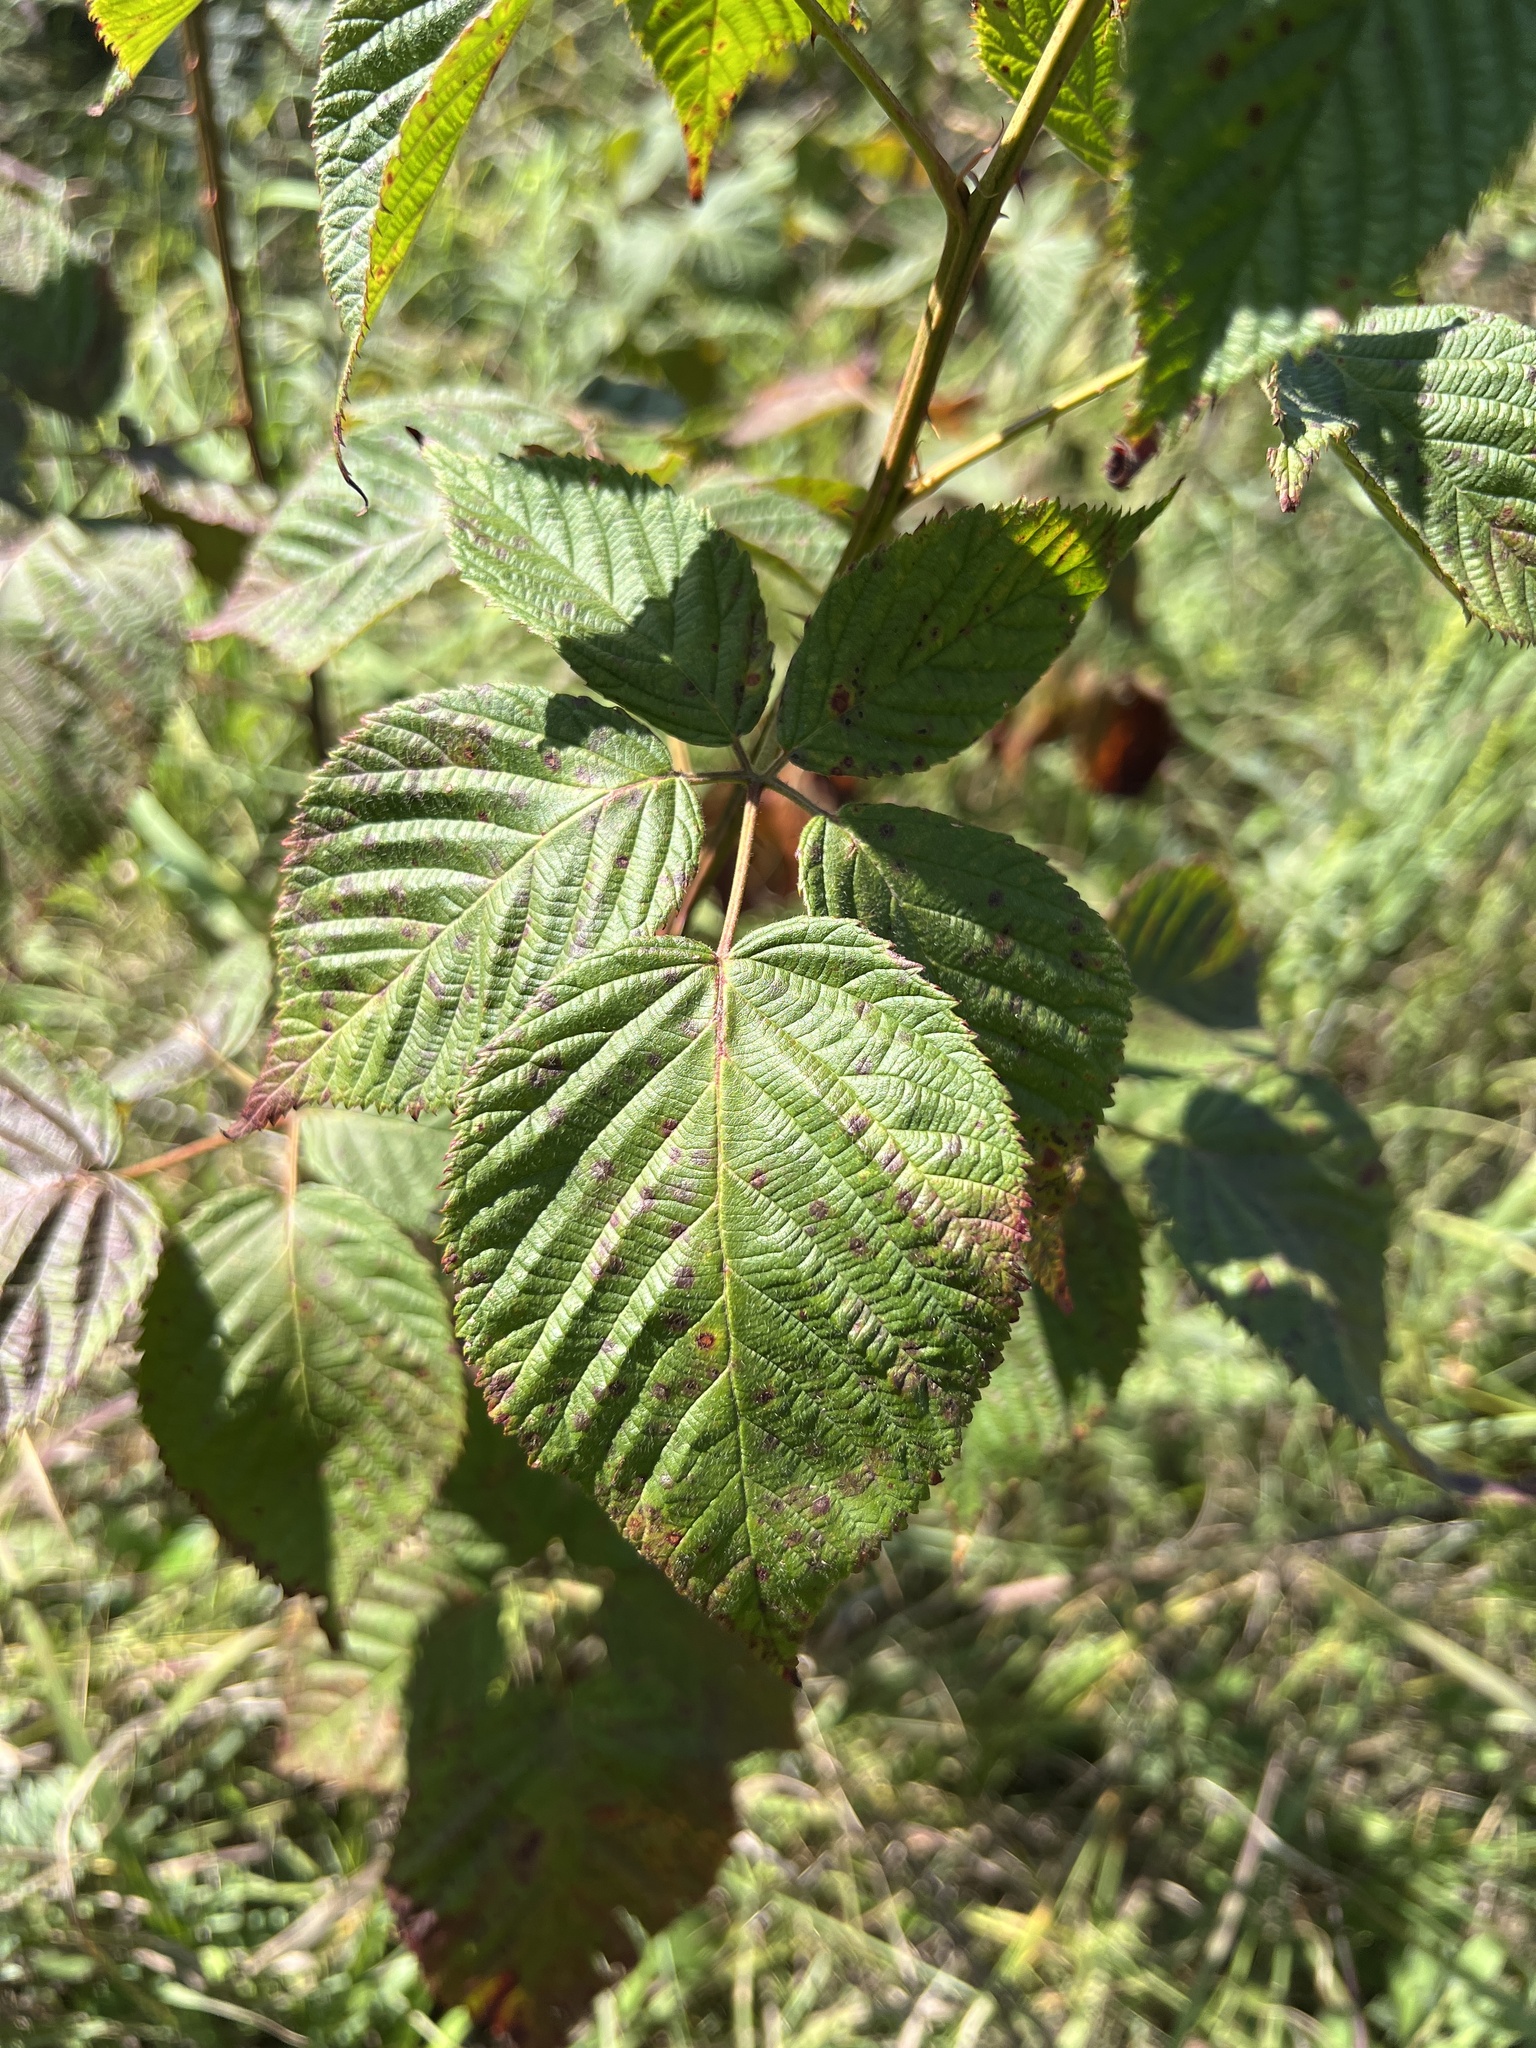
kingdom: Plantae
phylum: Tracheophyta
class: Magnoliopsida
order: Rosales
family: Rosaceae
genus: Rubus
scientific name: Rubus frondosus
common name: Yankee blackberry
